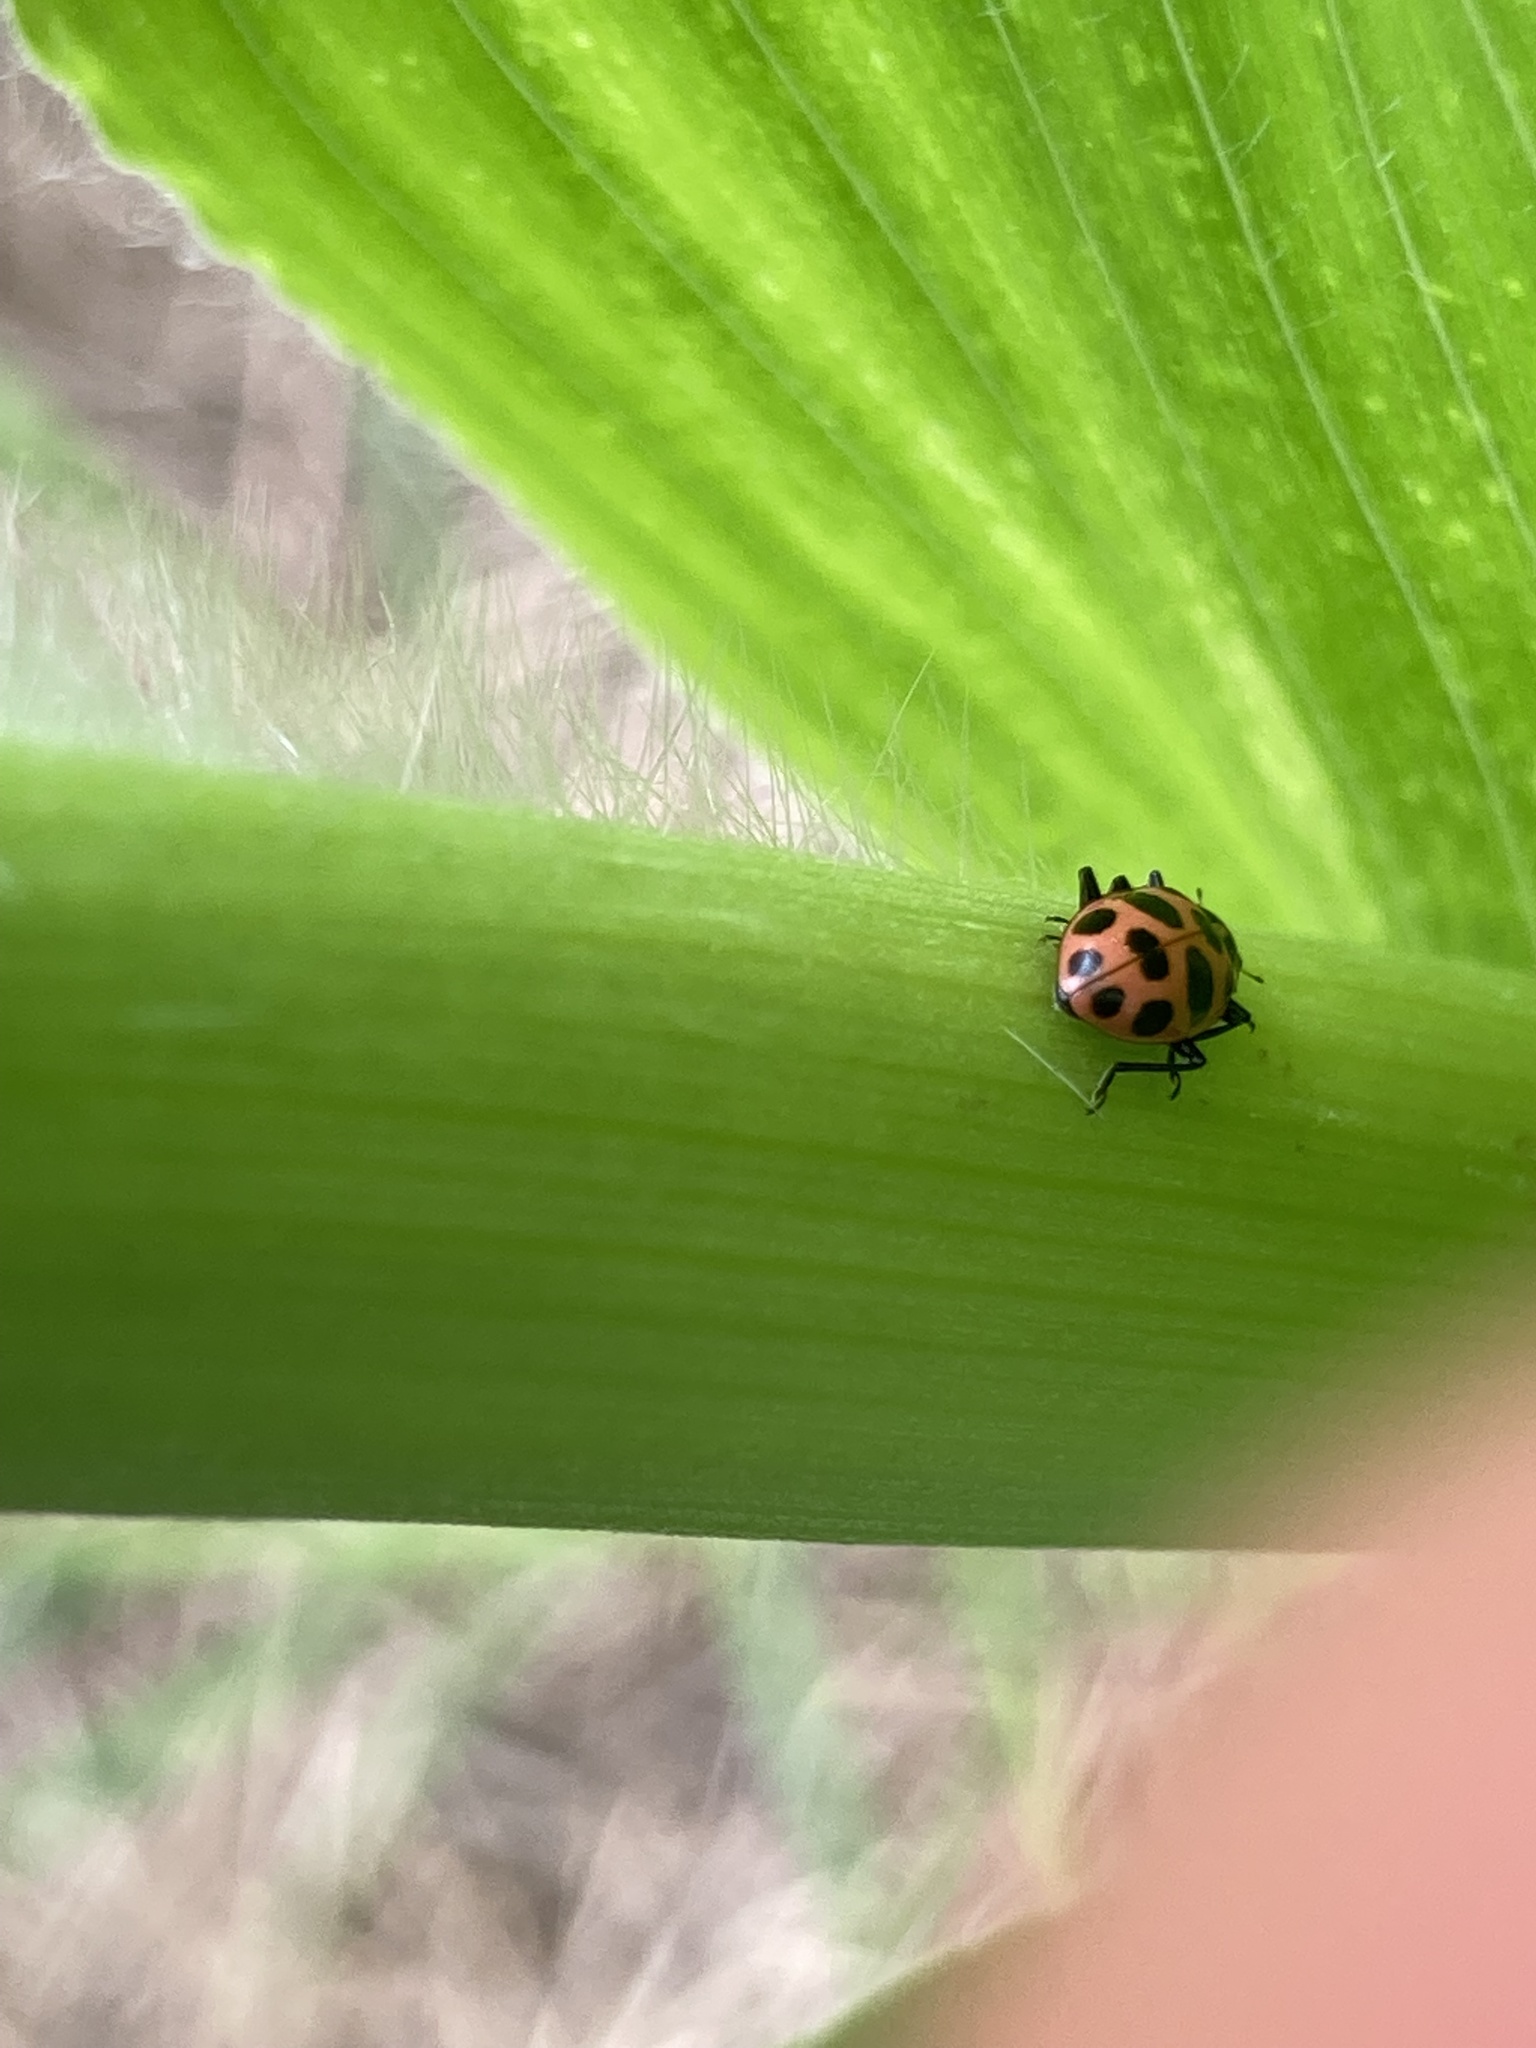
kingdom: Animalia
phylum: Arthropoda
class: Insecta
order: Coleoptera
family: Coccinellidae
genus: Coleomegilla
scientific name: Coleomegilla maculata
